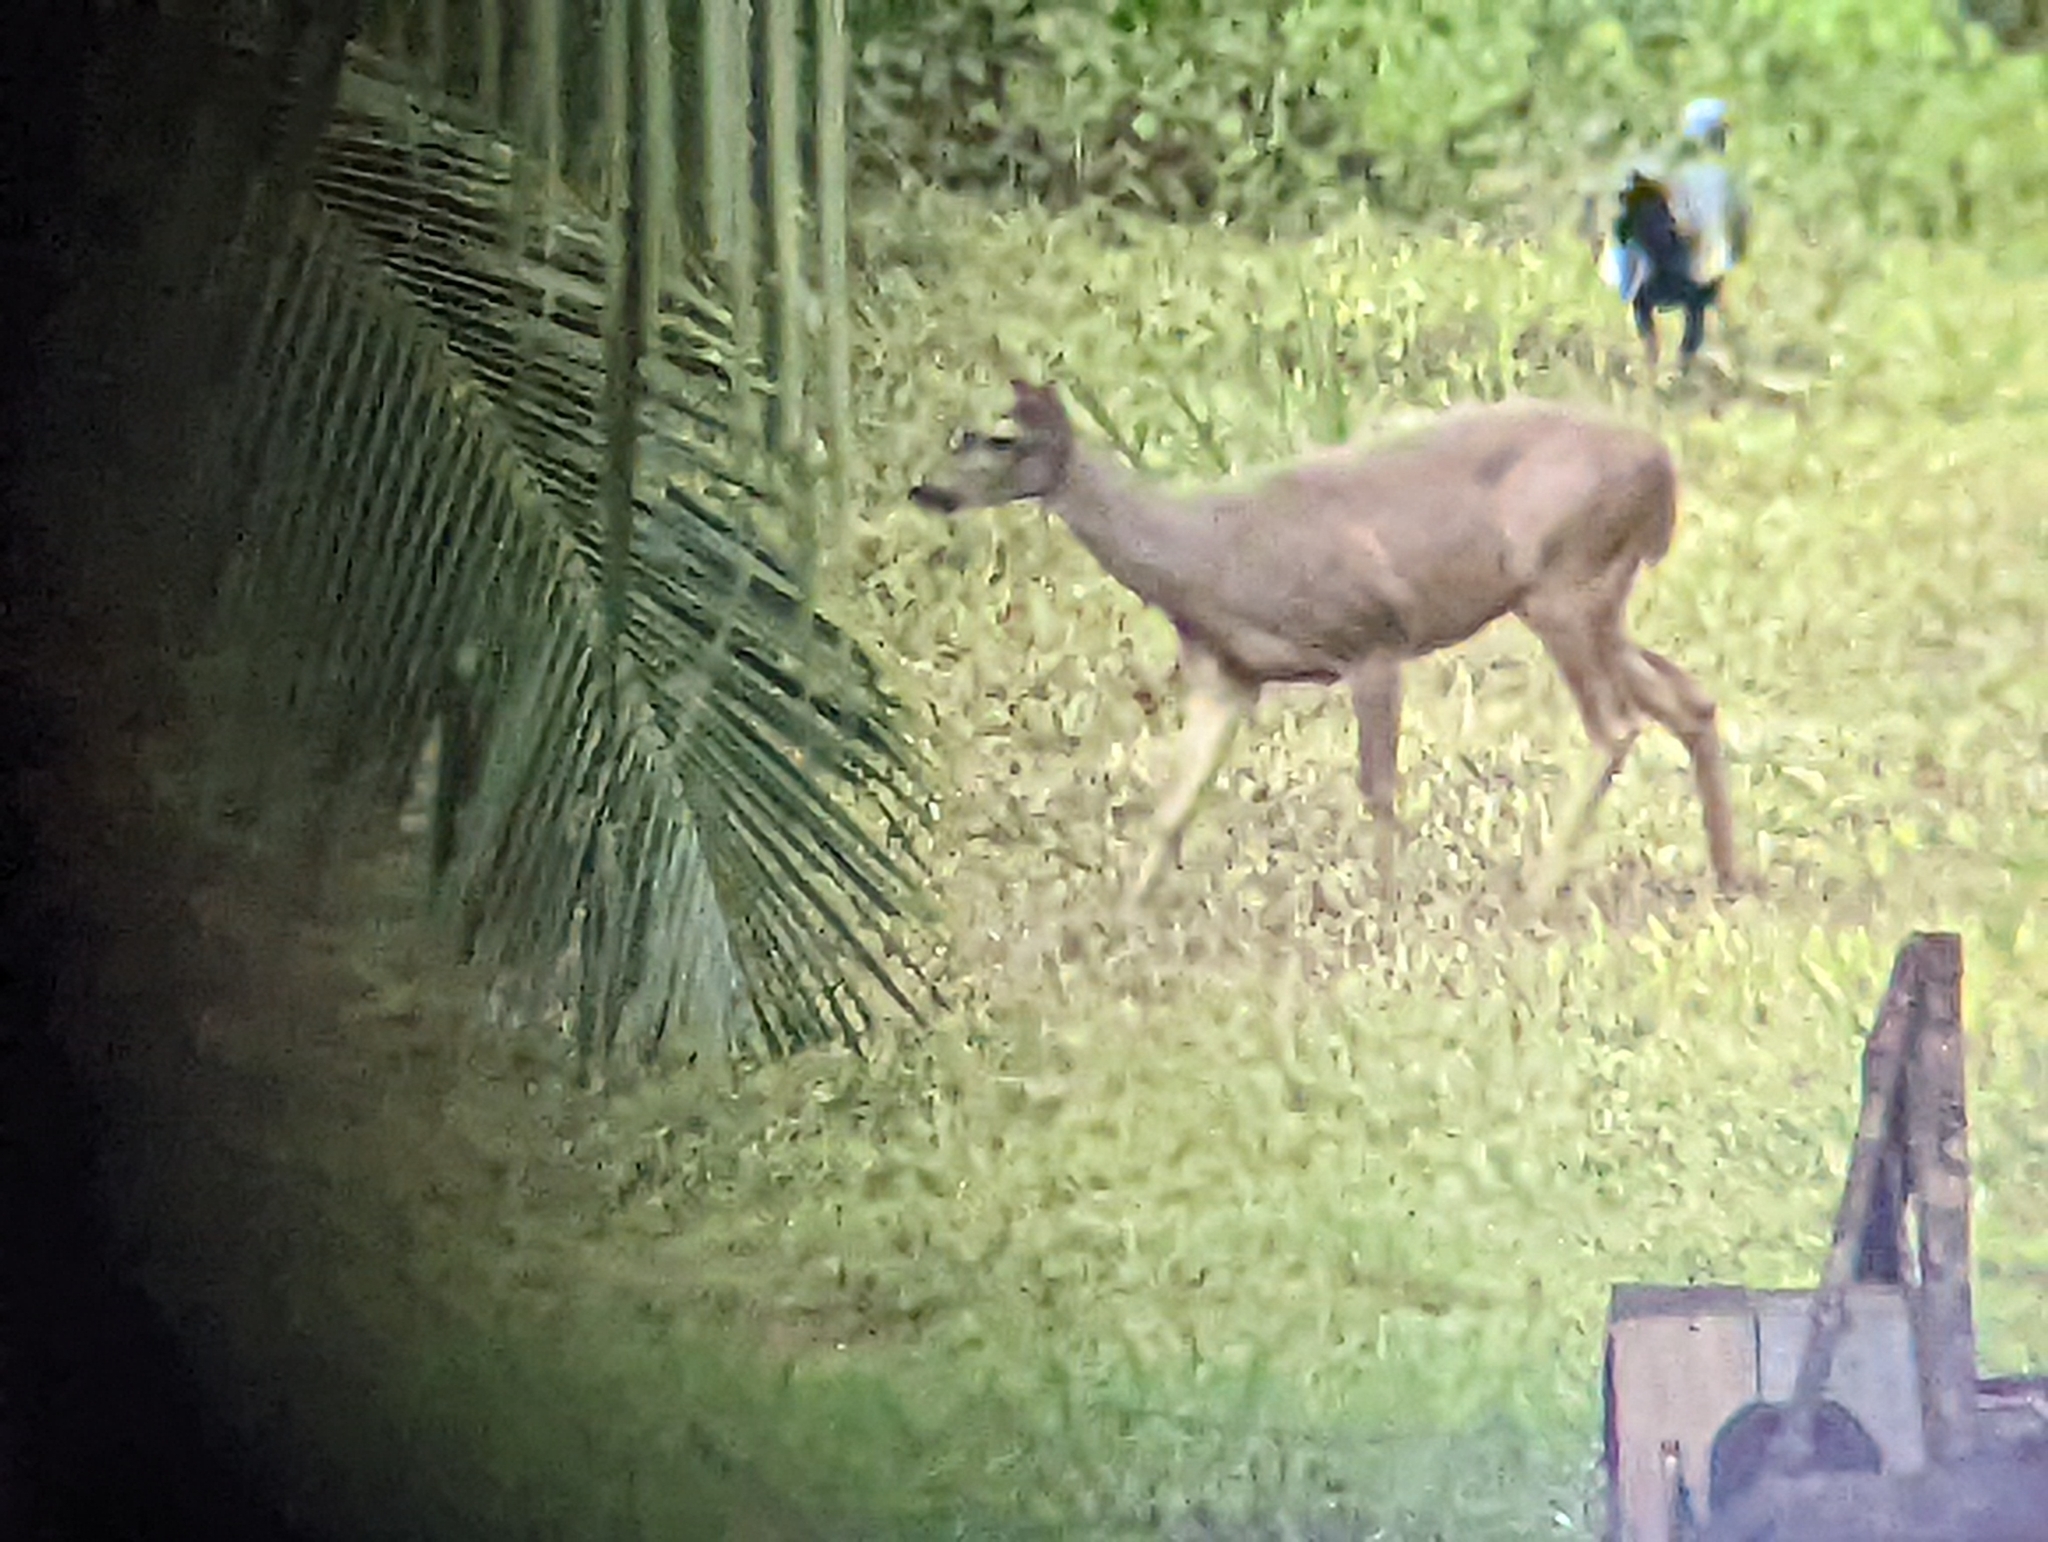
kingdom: Animalia
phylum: Chordata
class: Mammalia
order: Artiodactyla
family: Cervidae
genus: Odocoileus
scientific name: Odocoileus virginianus
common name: White-tailed deer
